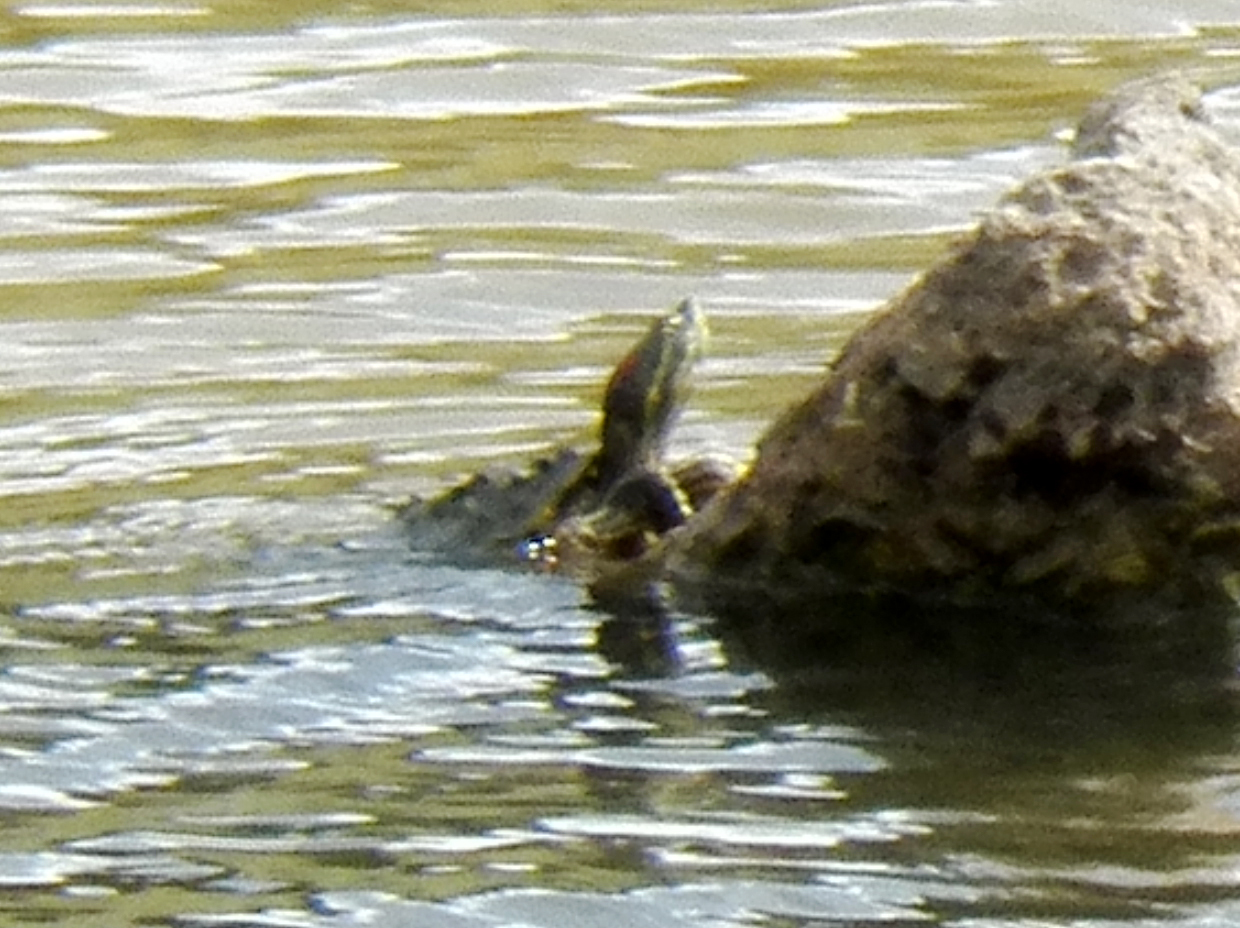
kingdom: Animalia
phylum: Chordata
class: Testudines
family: Emydidae
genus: Trachemys
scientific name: Trachemys scripta
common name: Slider
